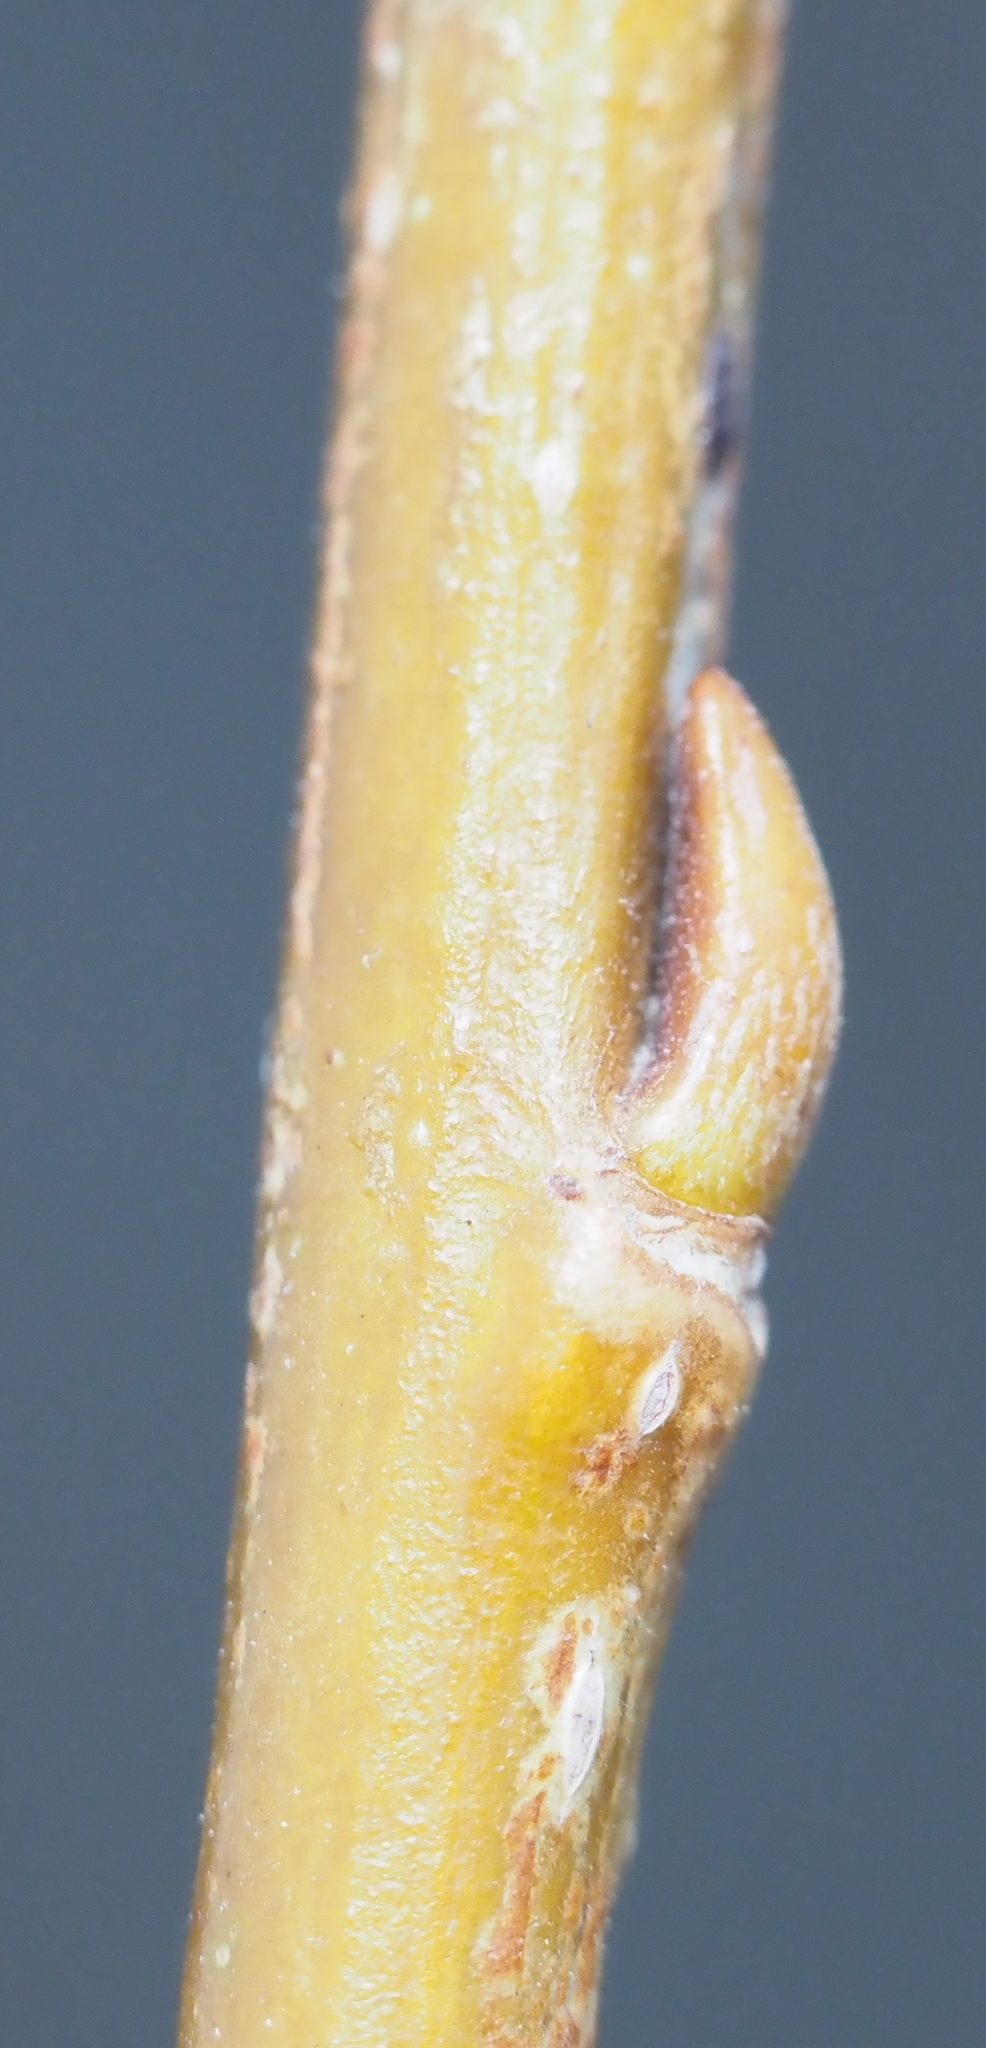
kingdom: Plantae
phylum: Tracheophyta
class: Magnoliopsida
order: Malpighiales
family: Salicaceae
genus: Salix
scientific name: Salix interior
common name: Sandbar willow
